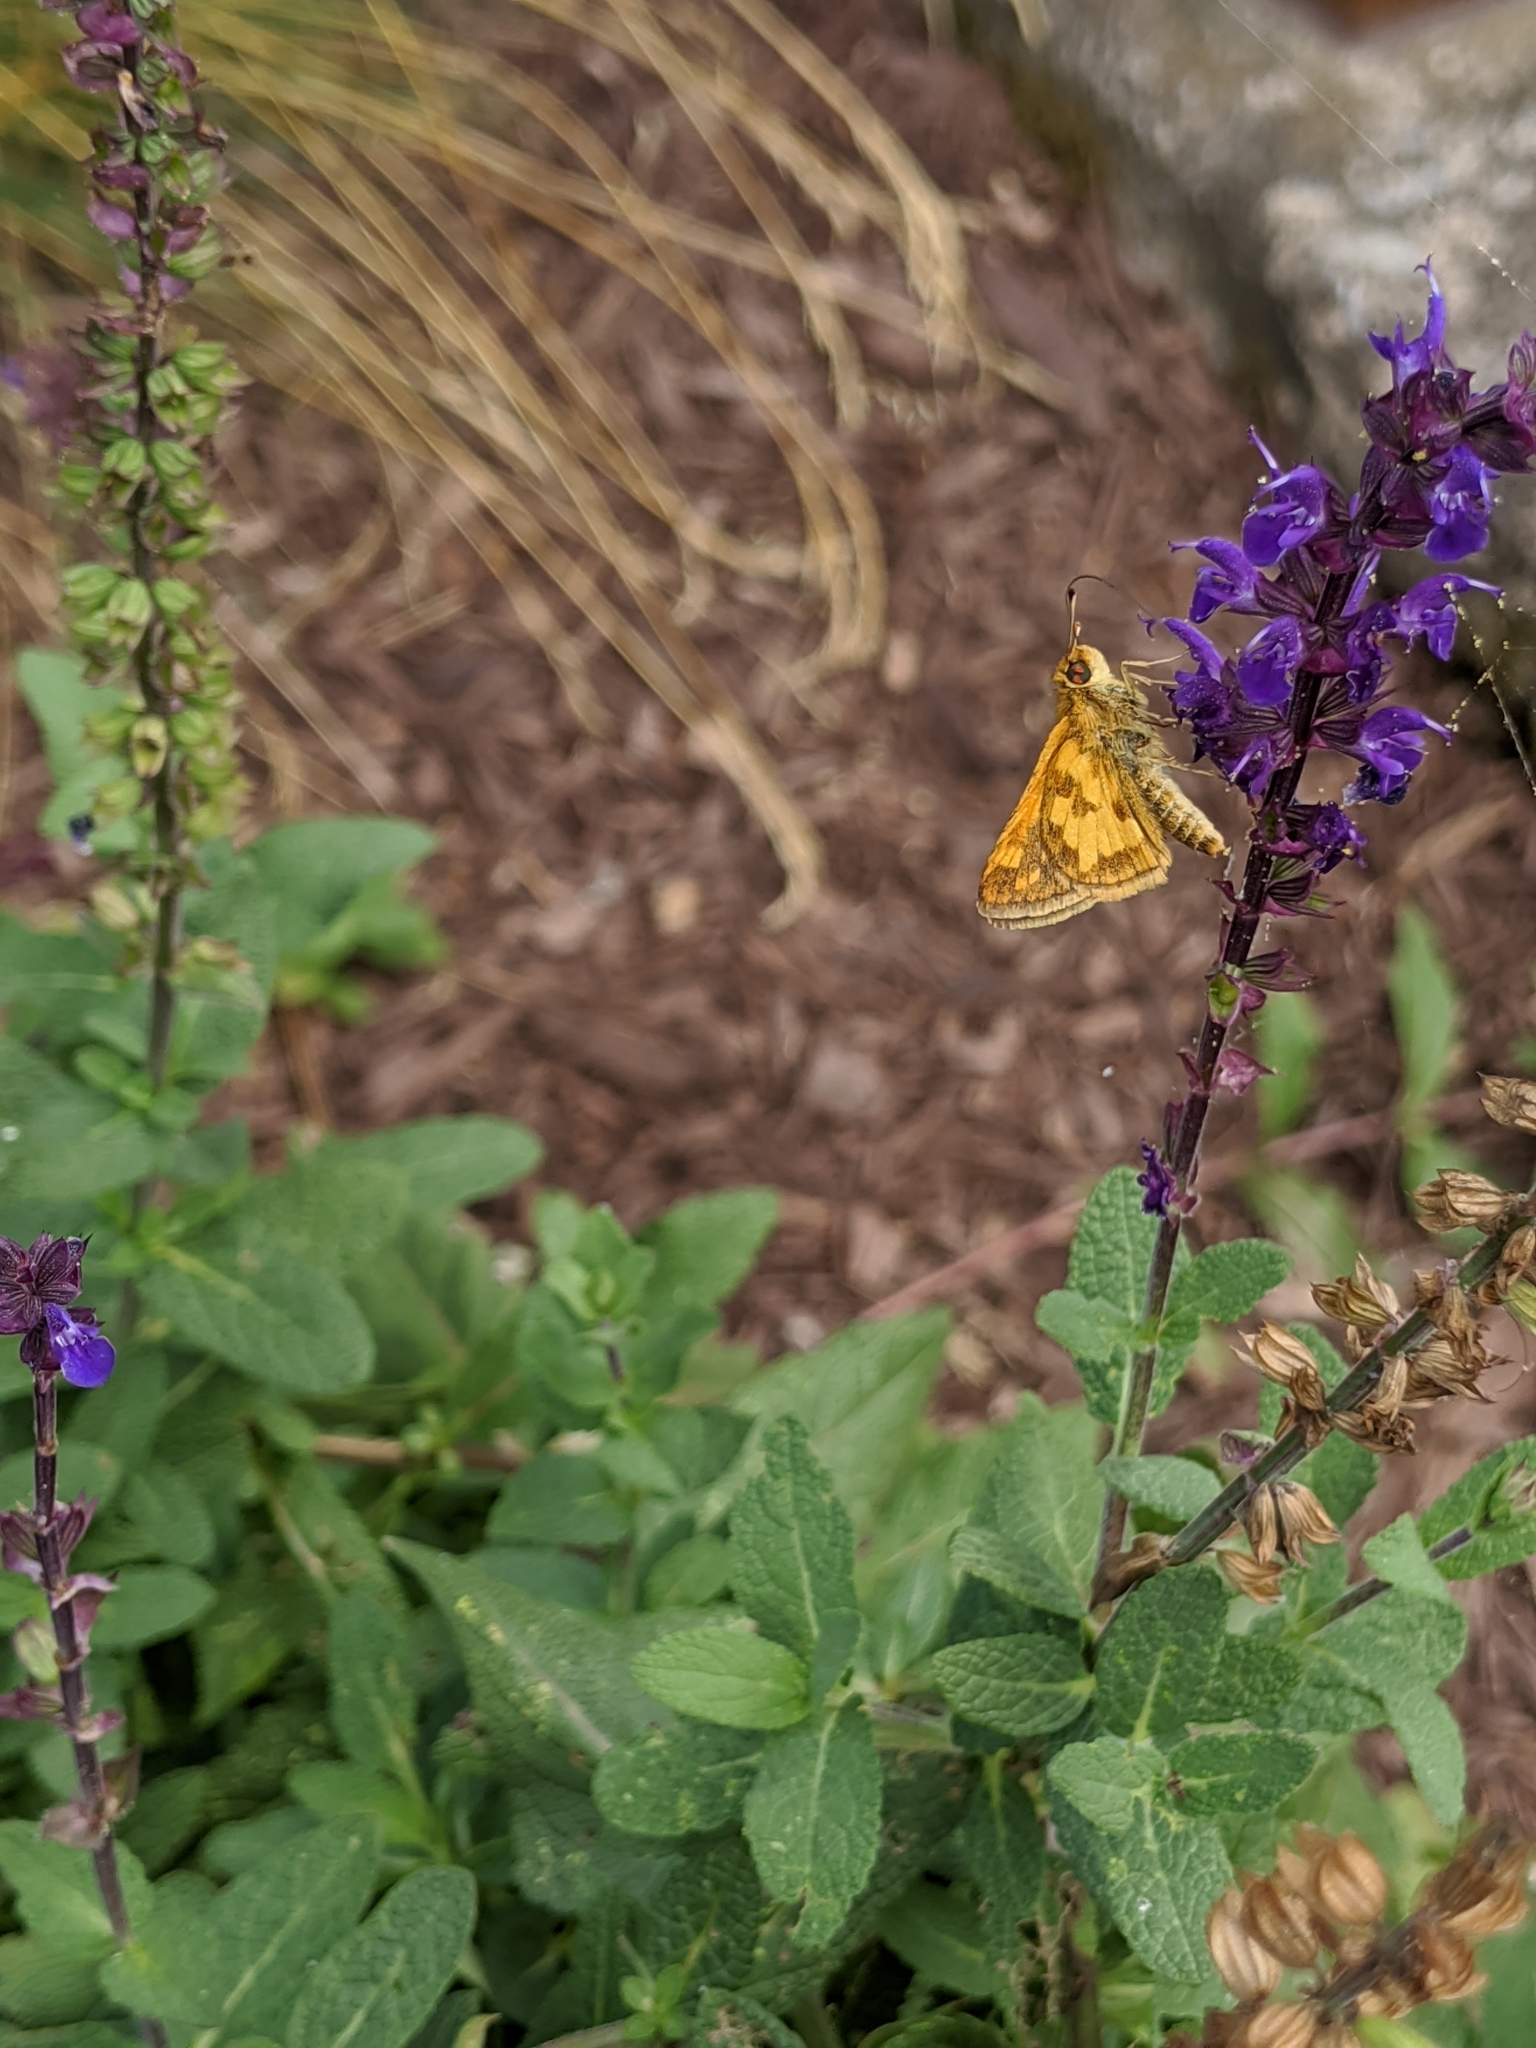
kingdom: Animalia
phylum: Arthropoda
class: Insecta
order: Lepidoptera
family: Hesperiidae
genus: Polites
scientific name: Polites coras
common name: Peck's skipper
